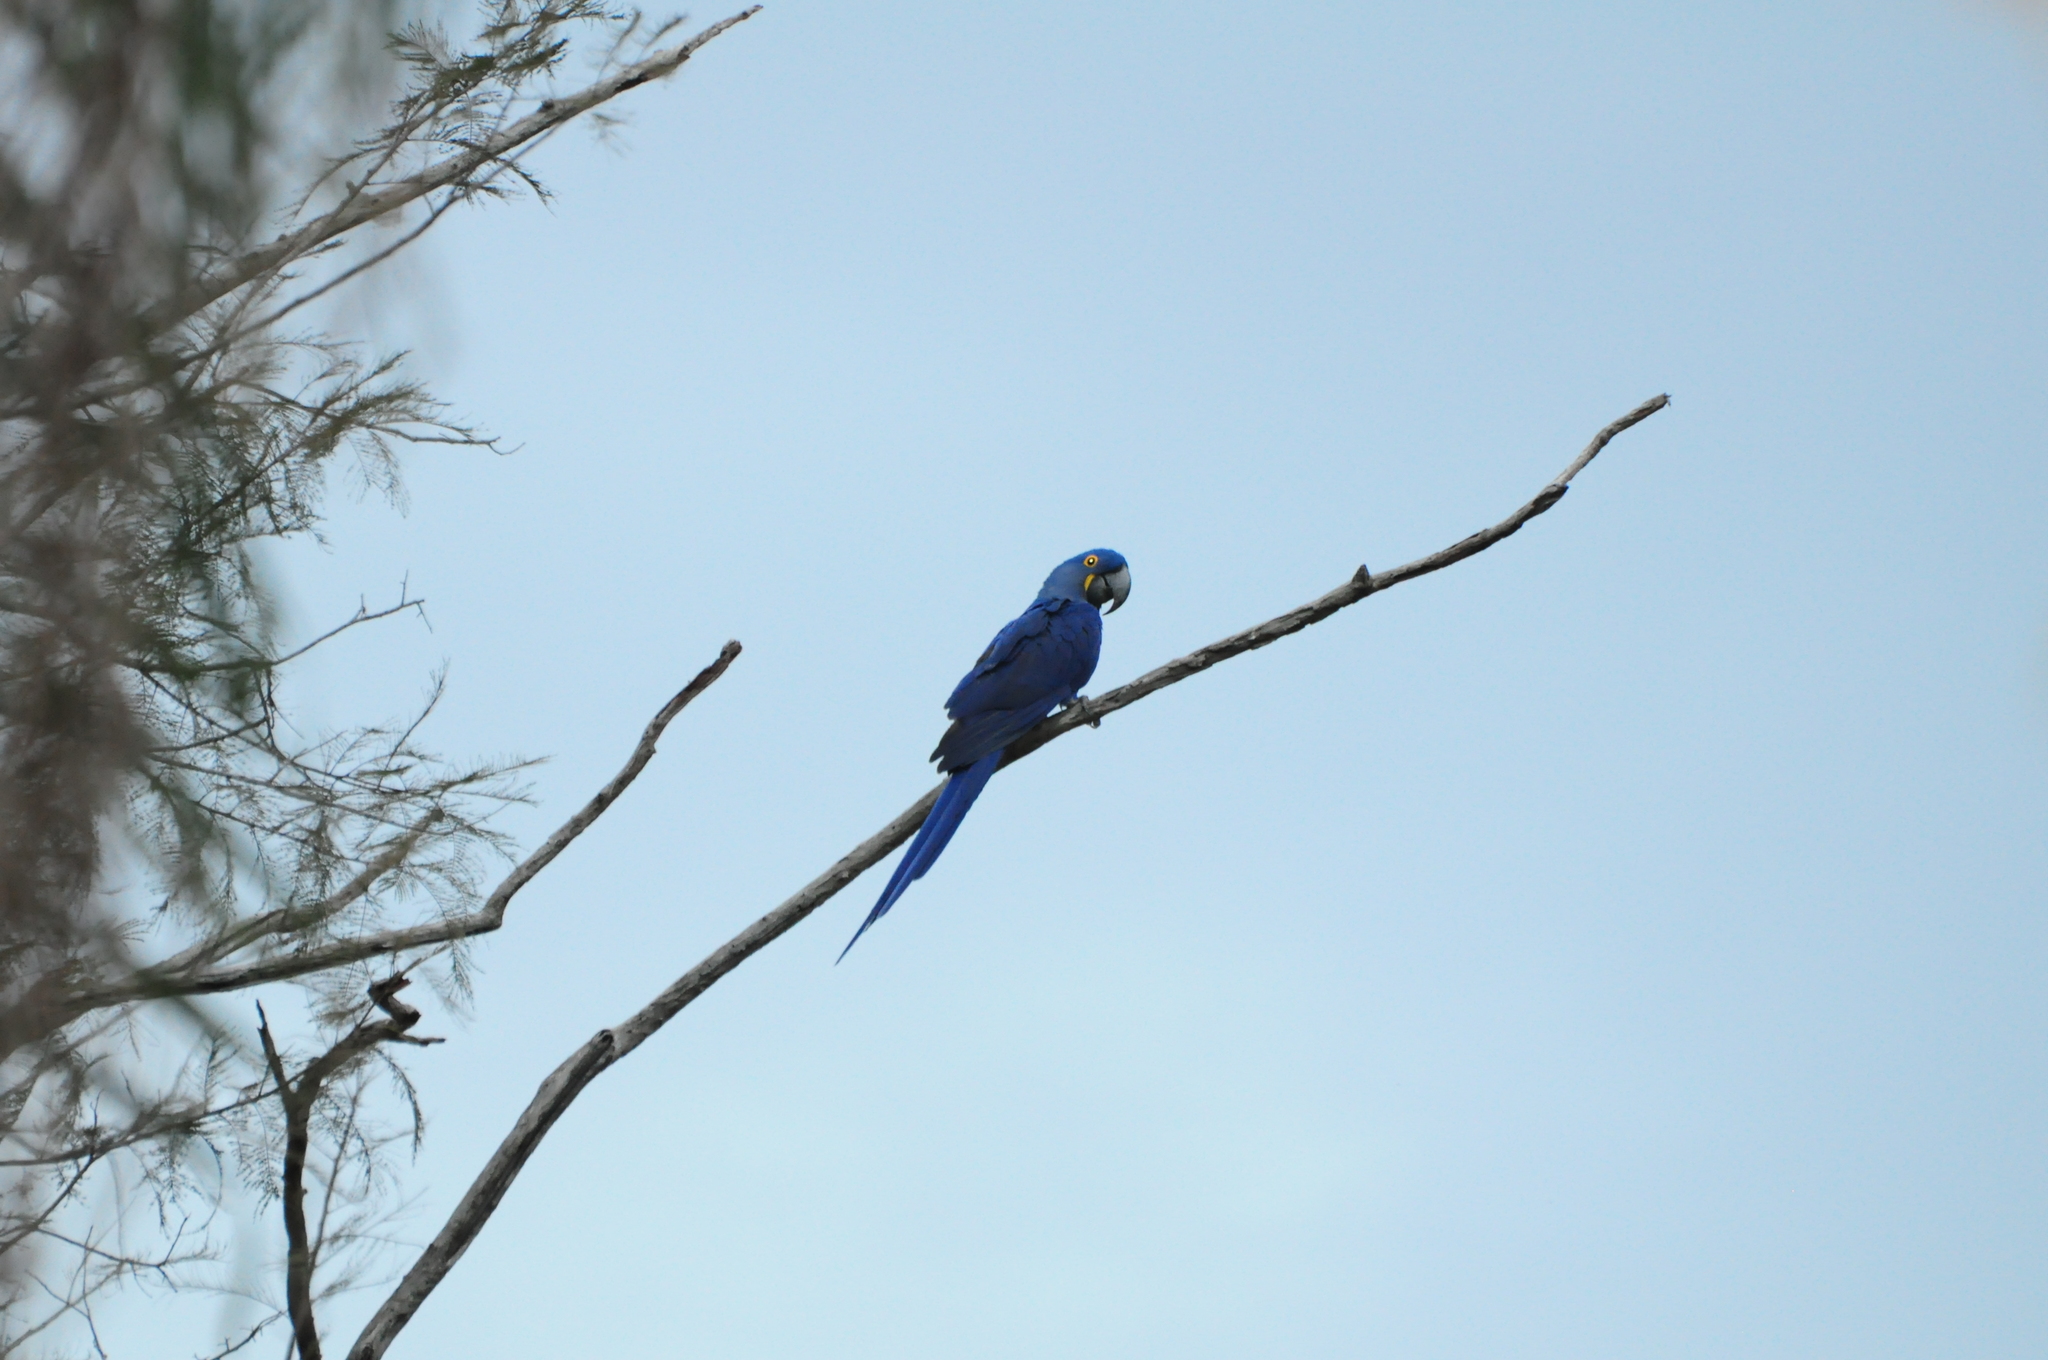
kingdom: Animalia
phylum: Chordata
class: Aves
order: Psittaciformes
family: Psittacidae
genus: Anodorhynchus
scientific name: Anodorhynchus hyacinthinus
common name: Hyacinth macaw
